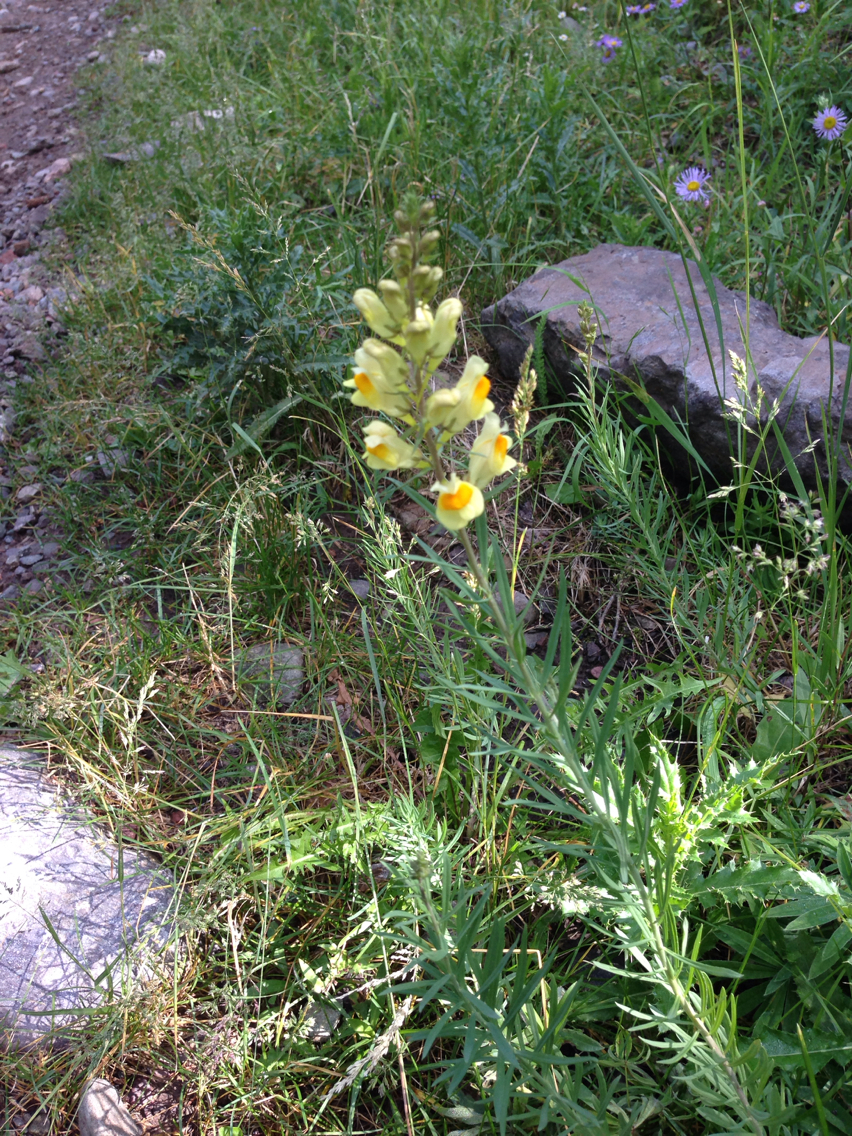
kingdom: Plantae
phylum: Tracheophyta
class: Magnoliopsida
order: Lamiales
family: Plantaginaceae
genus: Linaria
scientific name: Linaria vulgaris
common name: Butter and eggs
